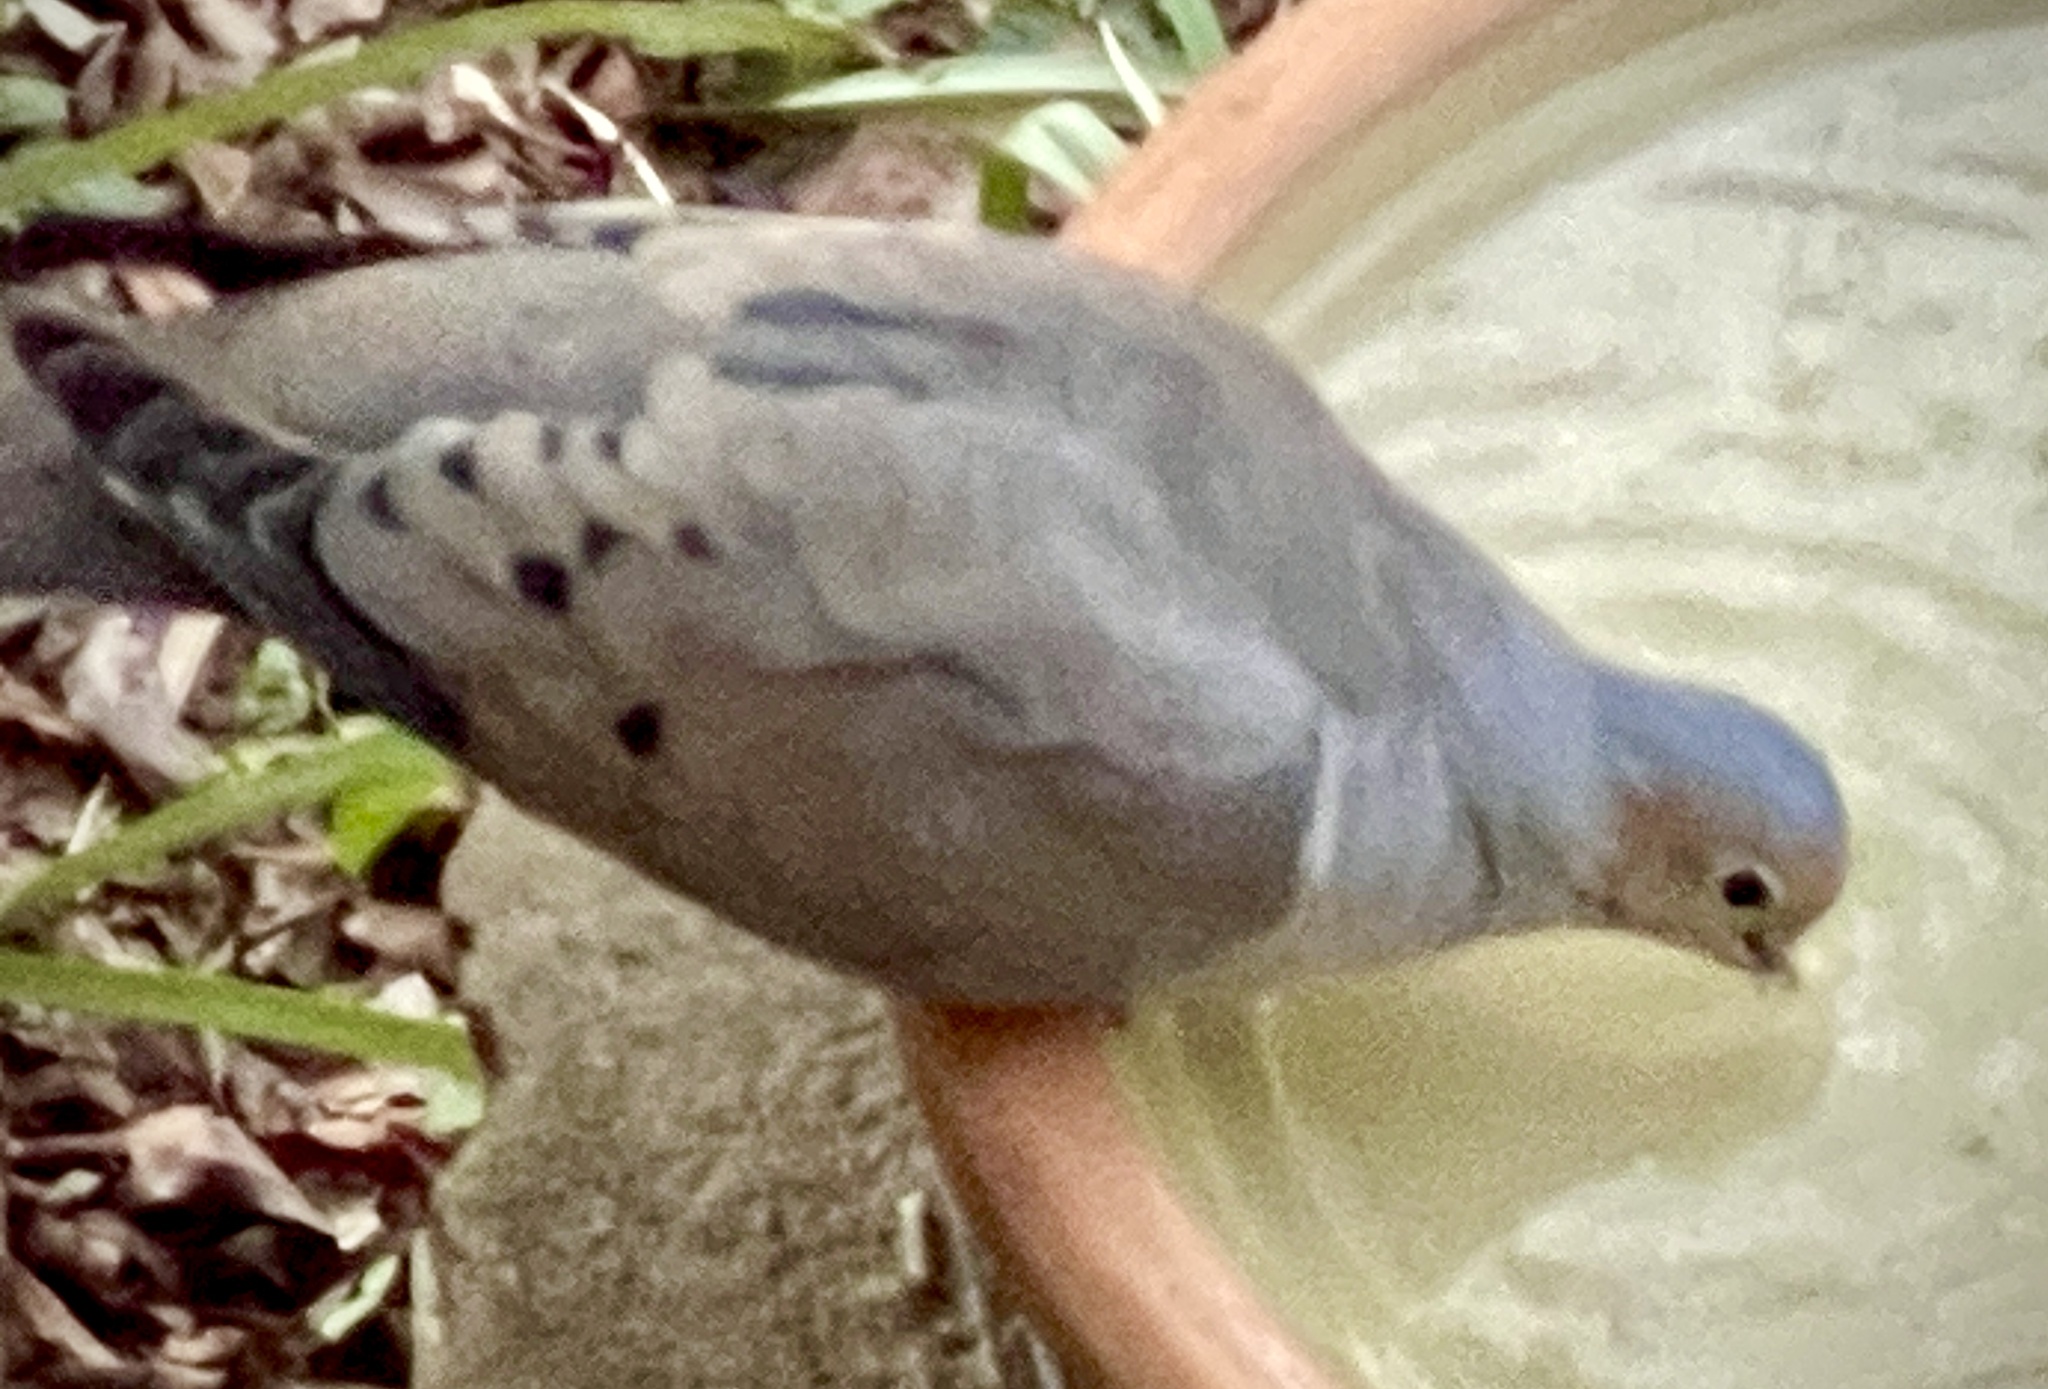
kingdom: Animalia
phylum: Chordata
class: Aves
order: Columbiformes
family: Columbidae
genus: Zenaida
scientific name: Zenaida macroura
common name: Mourning dove
